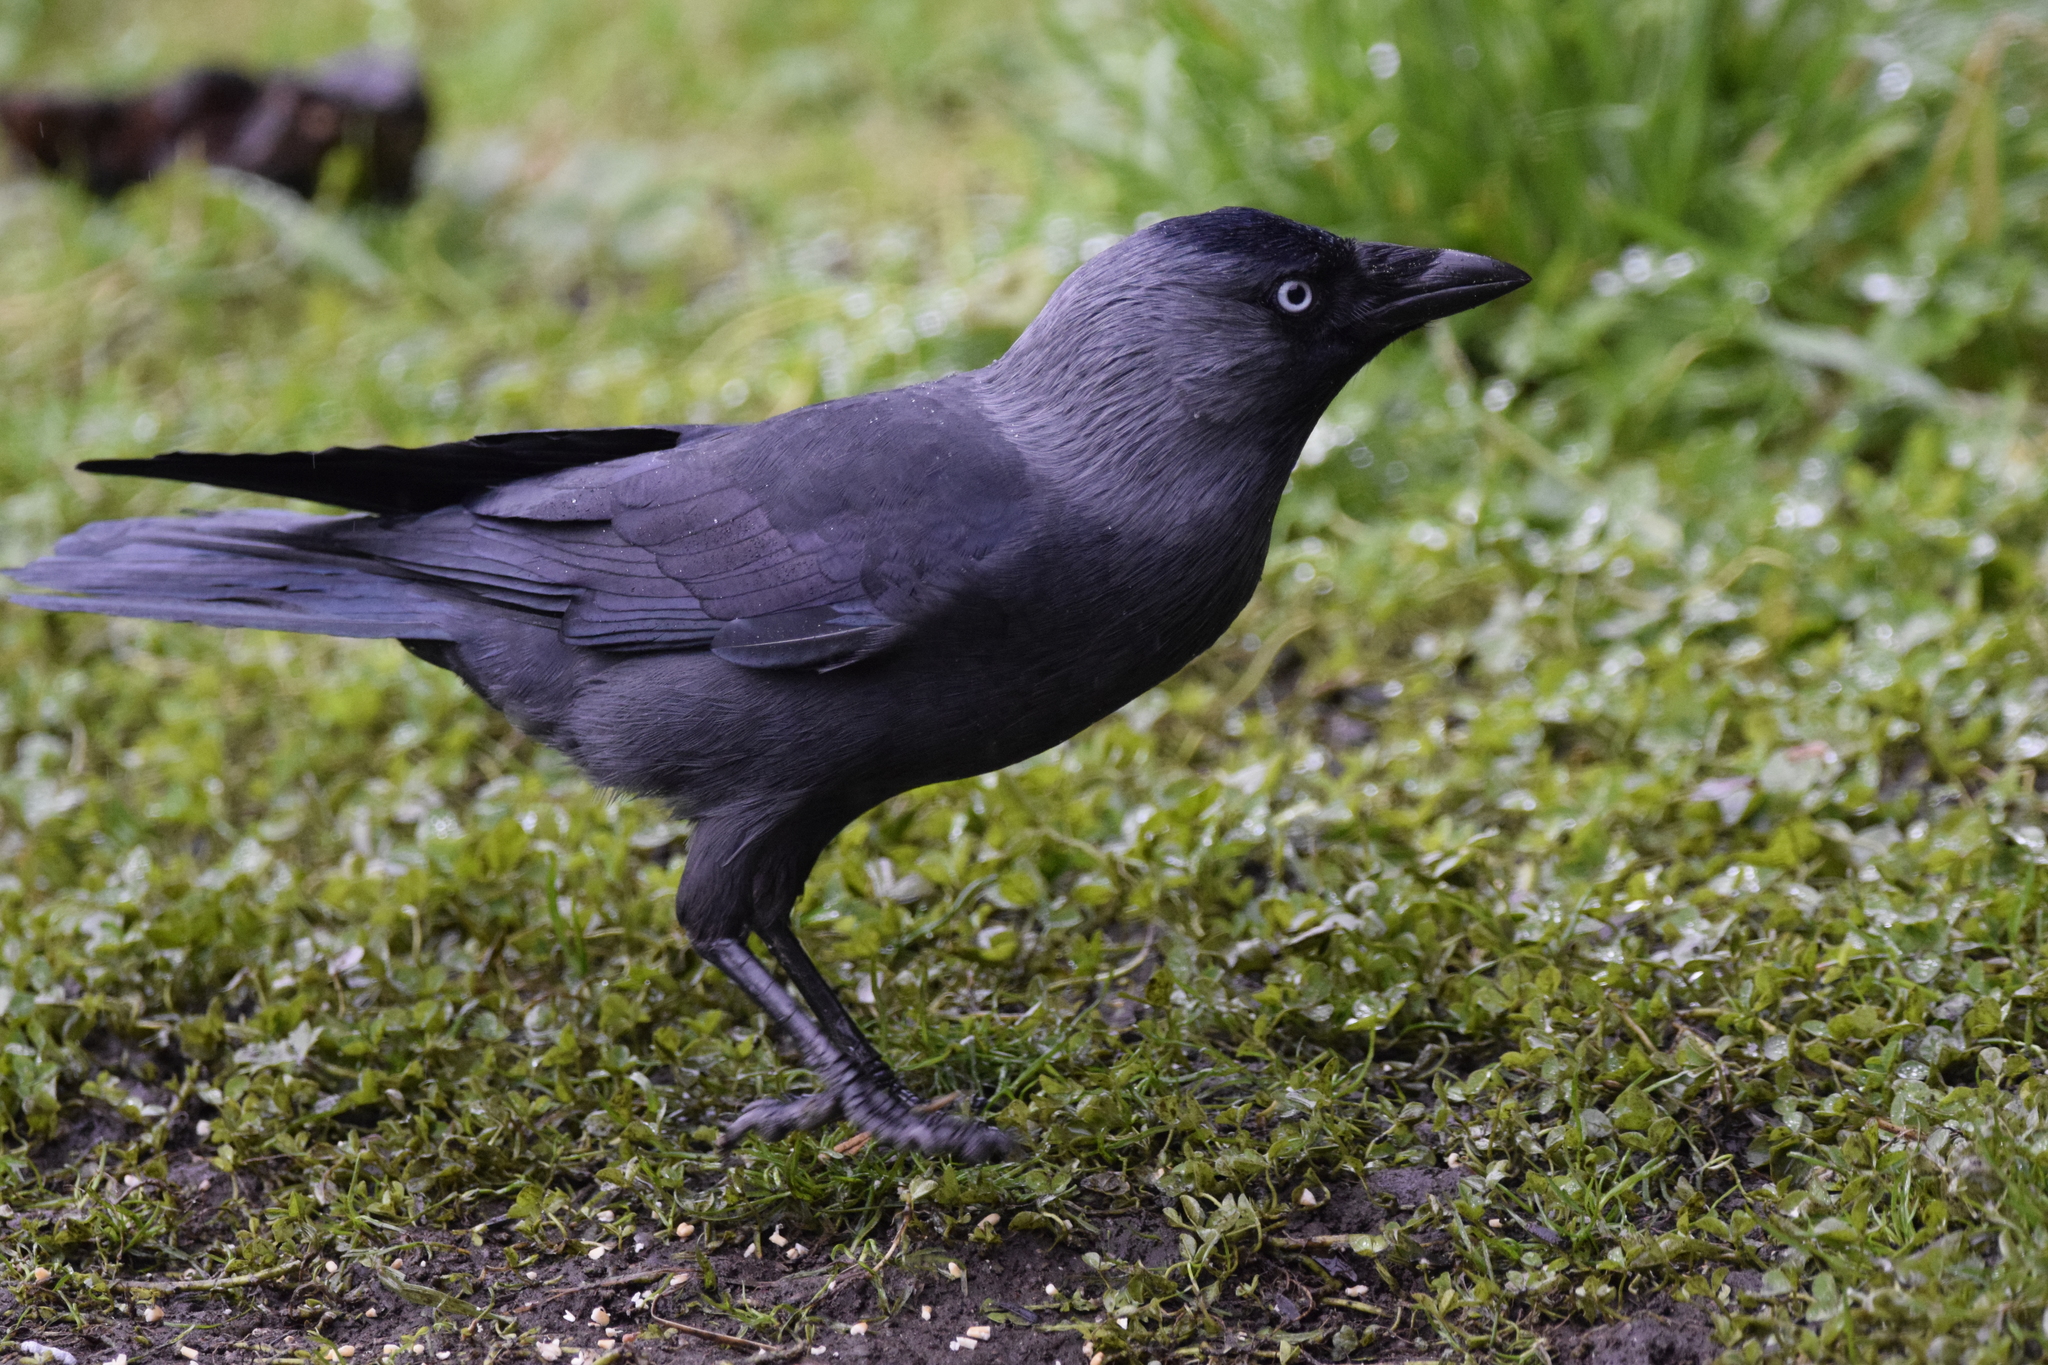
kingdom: Animalia
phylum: Chordata
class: Aves
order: Passeriformes
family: Corvidae
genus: Coloeus
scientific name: Coloeus monedula
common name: Western jackdaw
